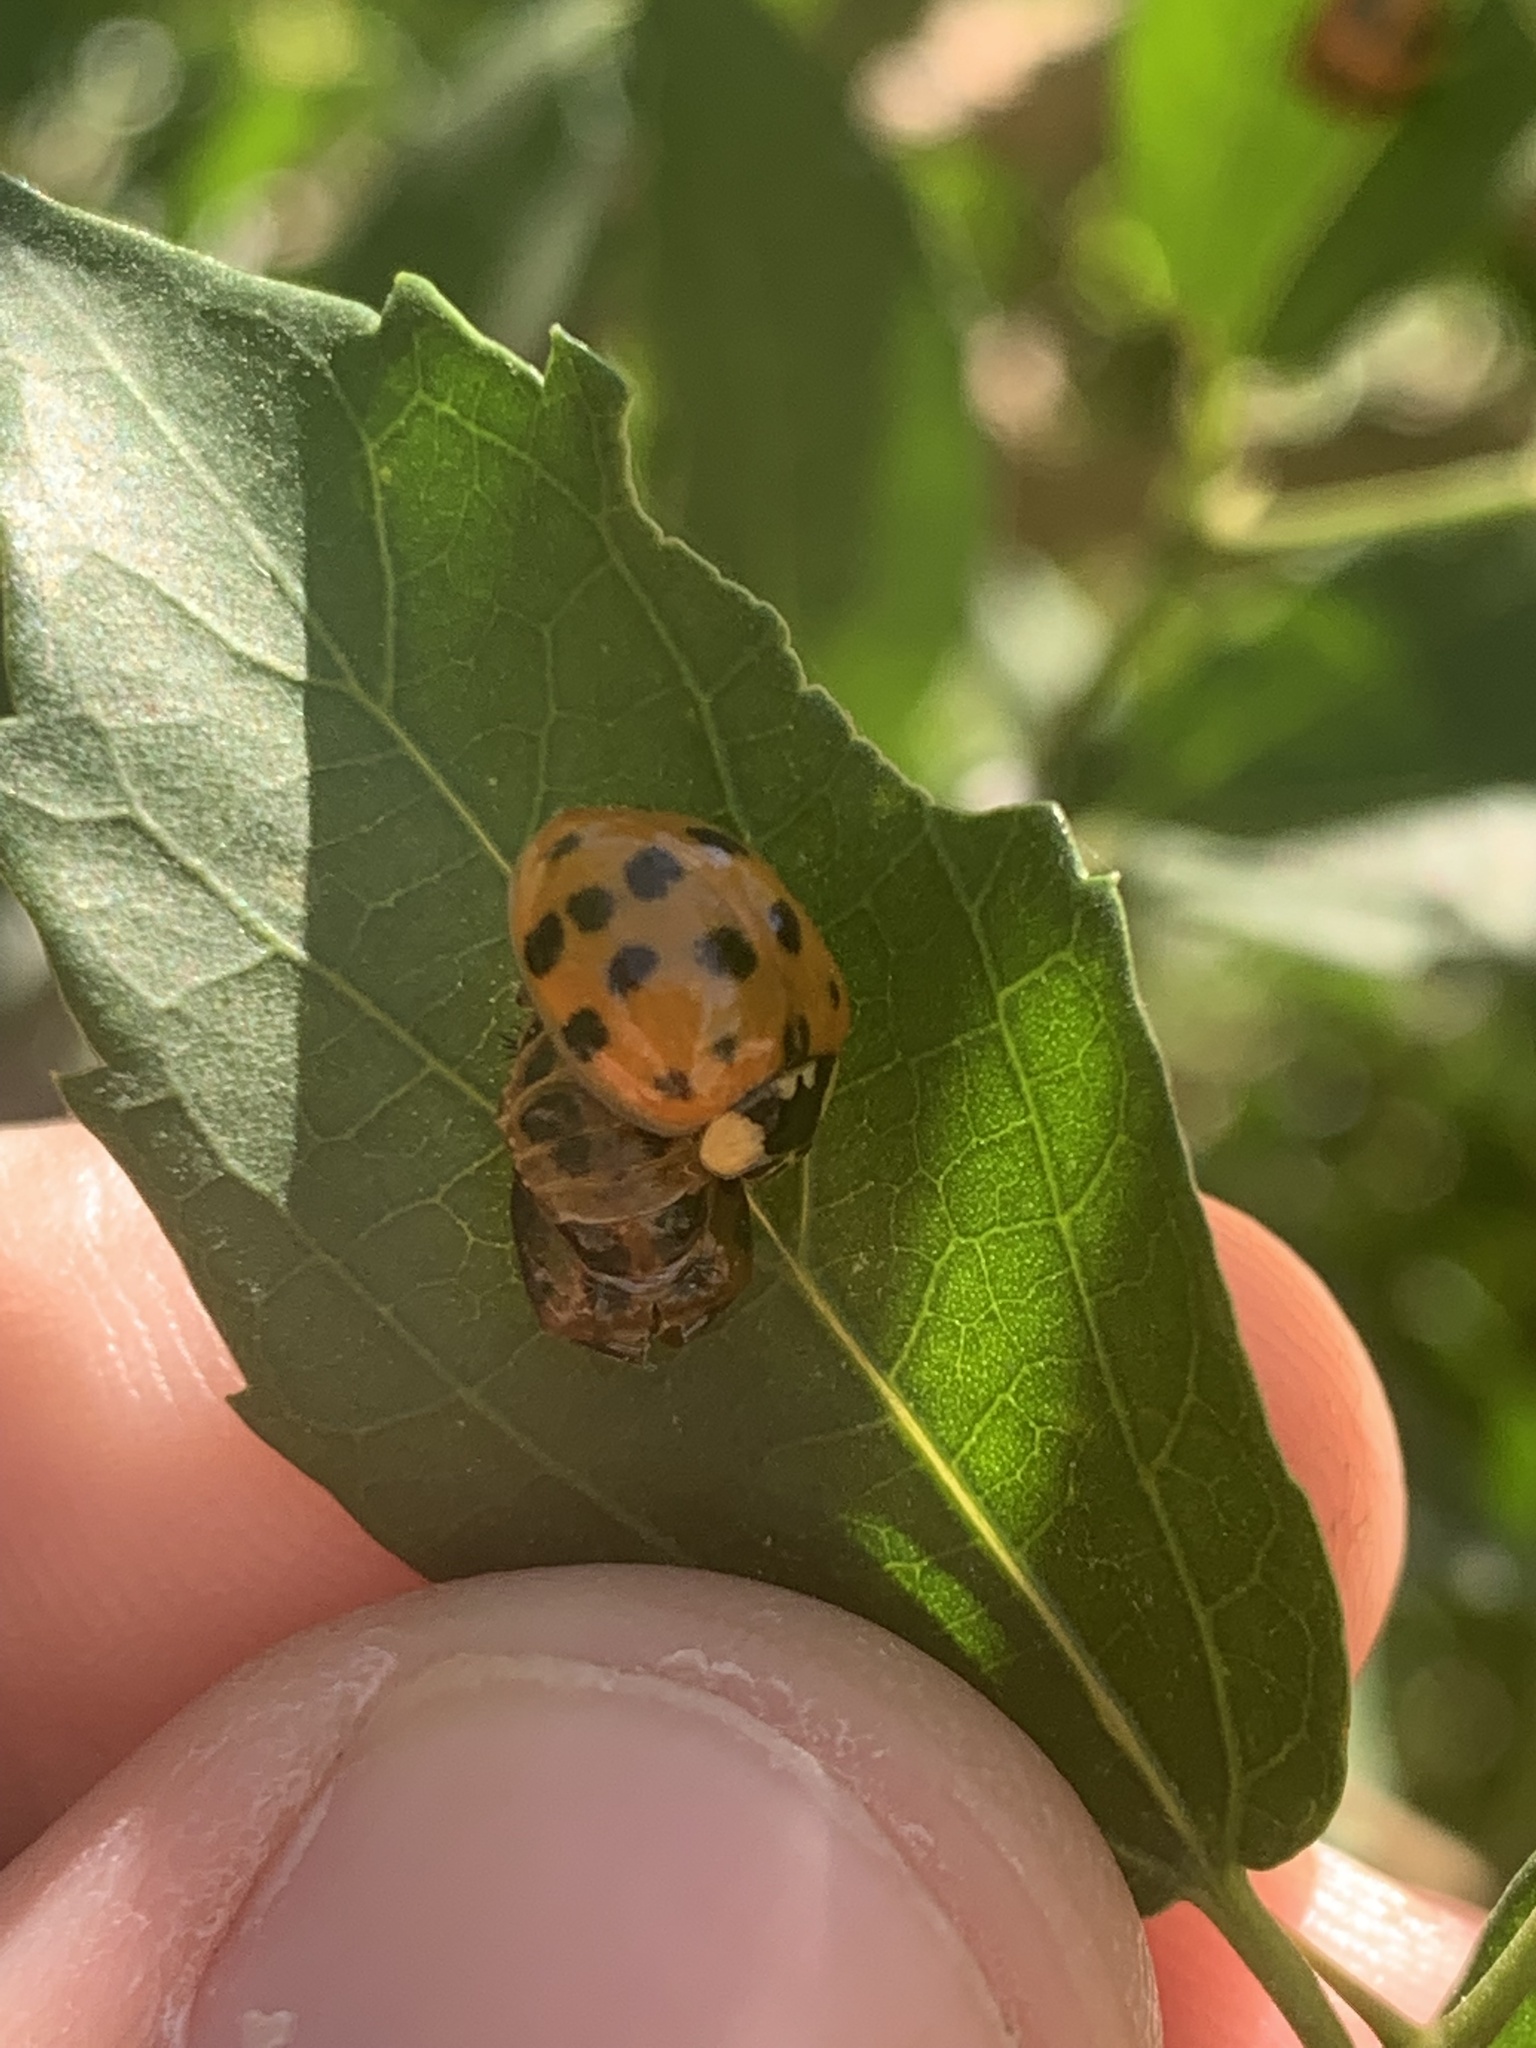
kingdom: Animalia
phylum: Arthropoda
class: Insecta
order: Coleoptera
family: Coccinellidae
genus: Harmonia
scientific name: Harmonia axyridis
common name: Harlequin ladybird
